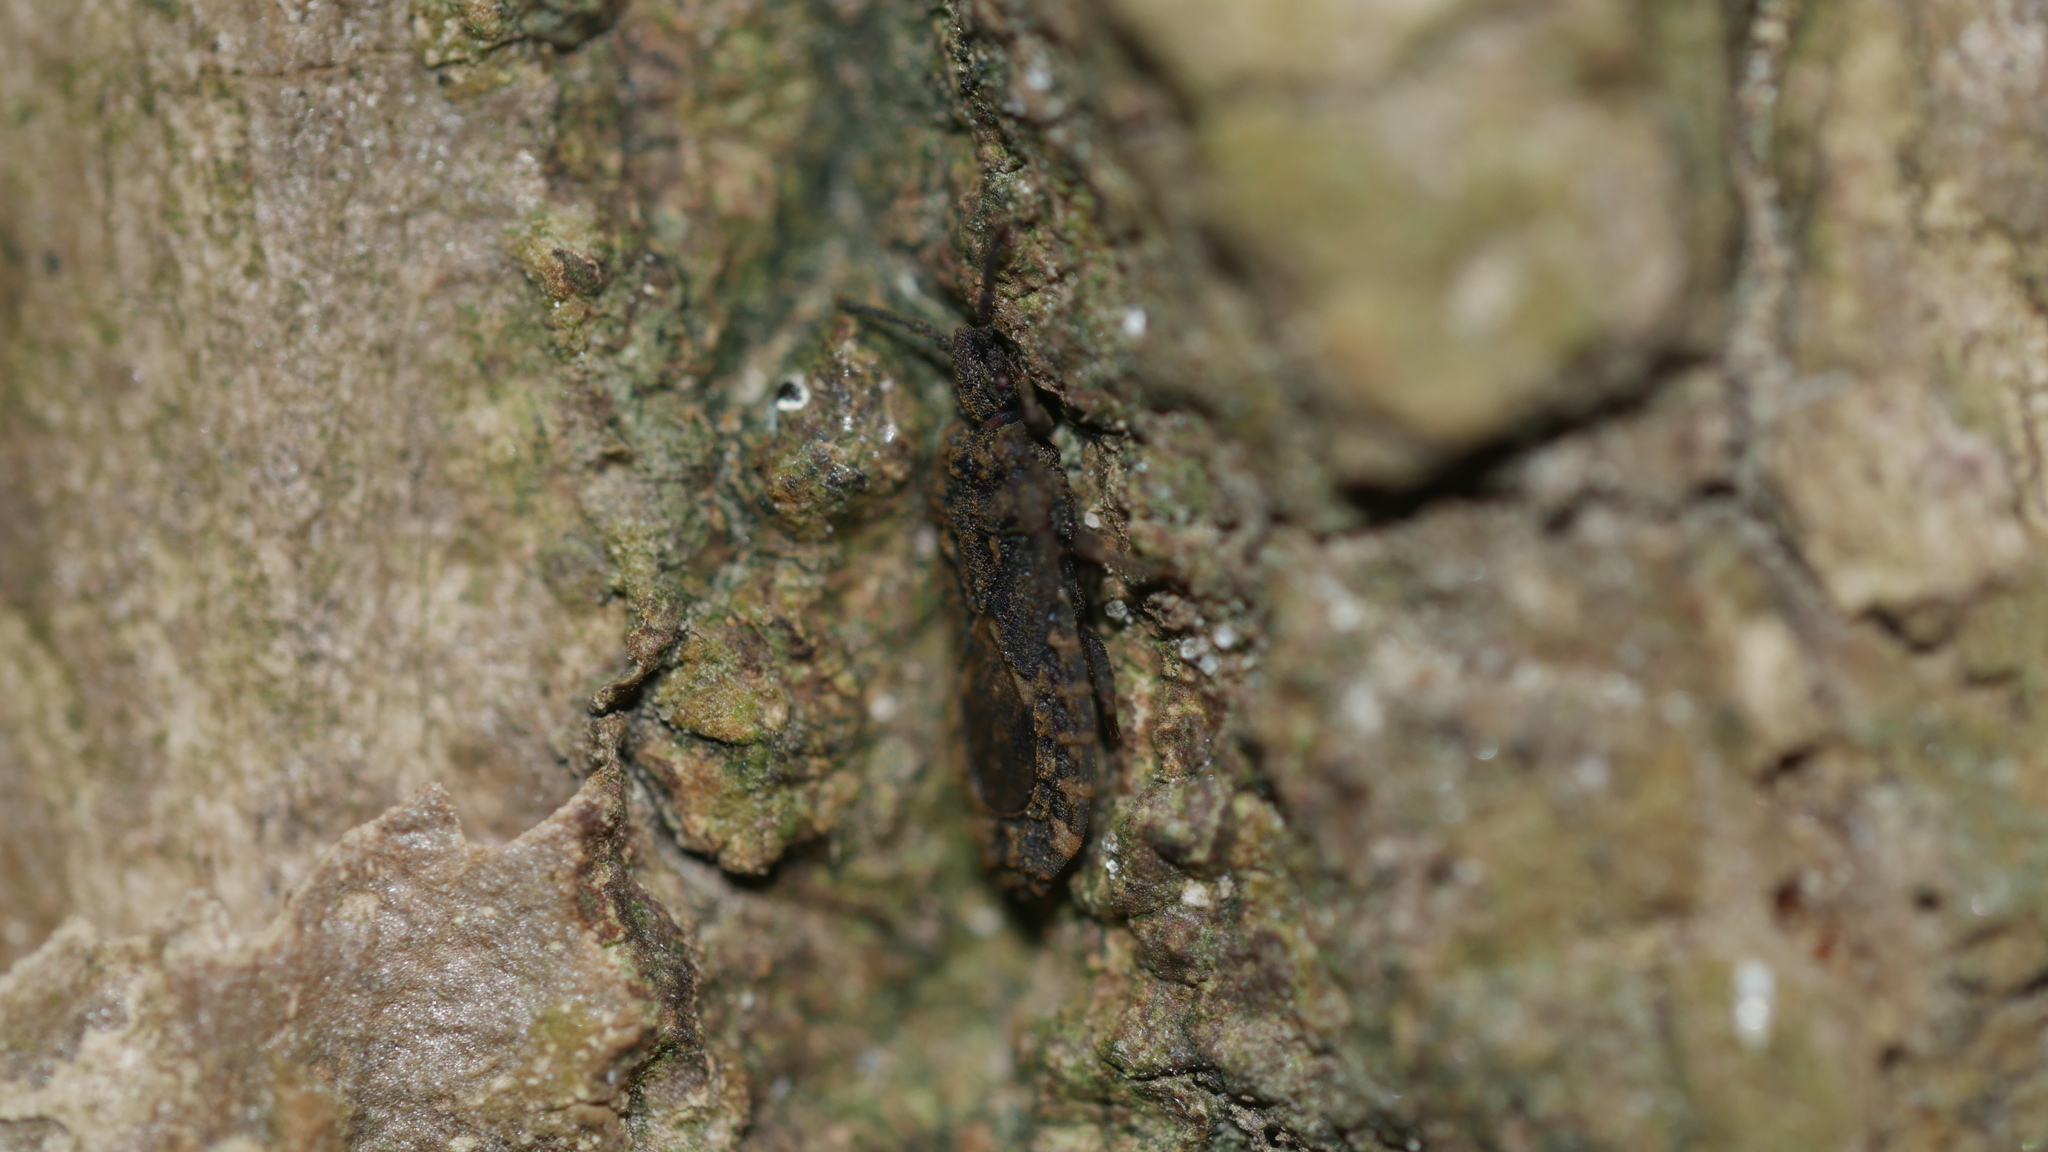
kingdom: Animalia
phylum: Arthropoda
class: Insecta
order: Hemiptera
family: Aradidae
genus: Mezira
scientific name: Mezira
